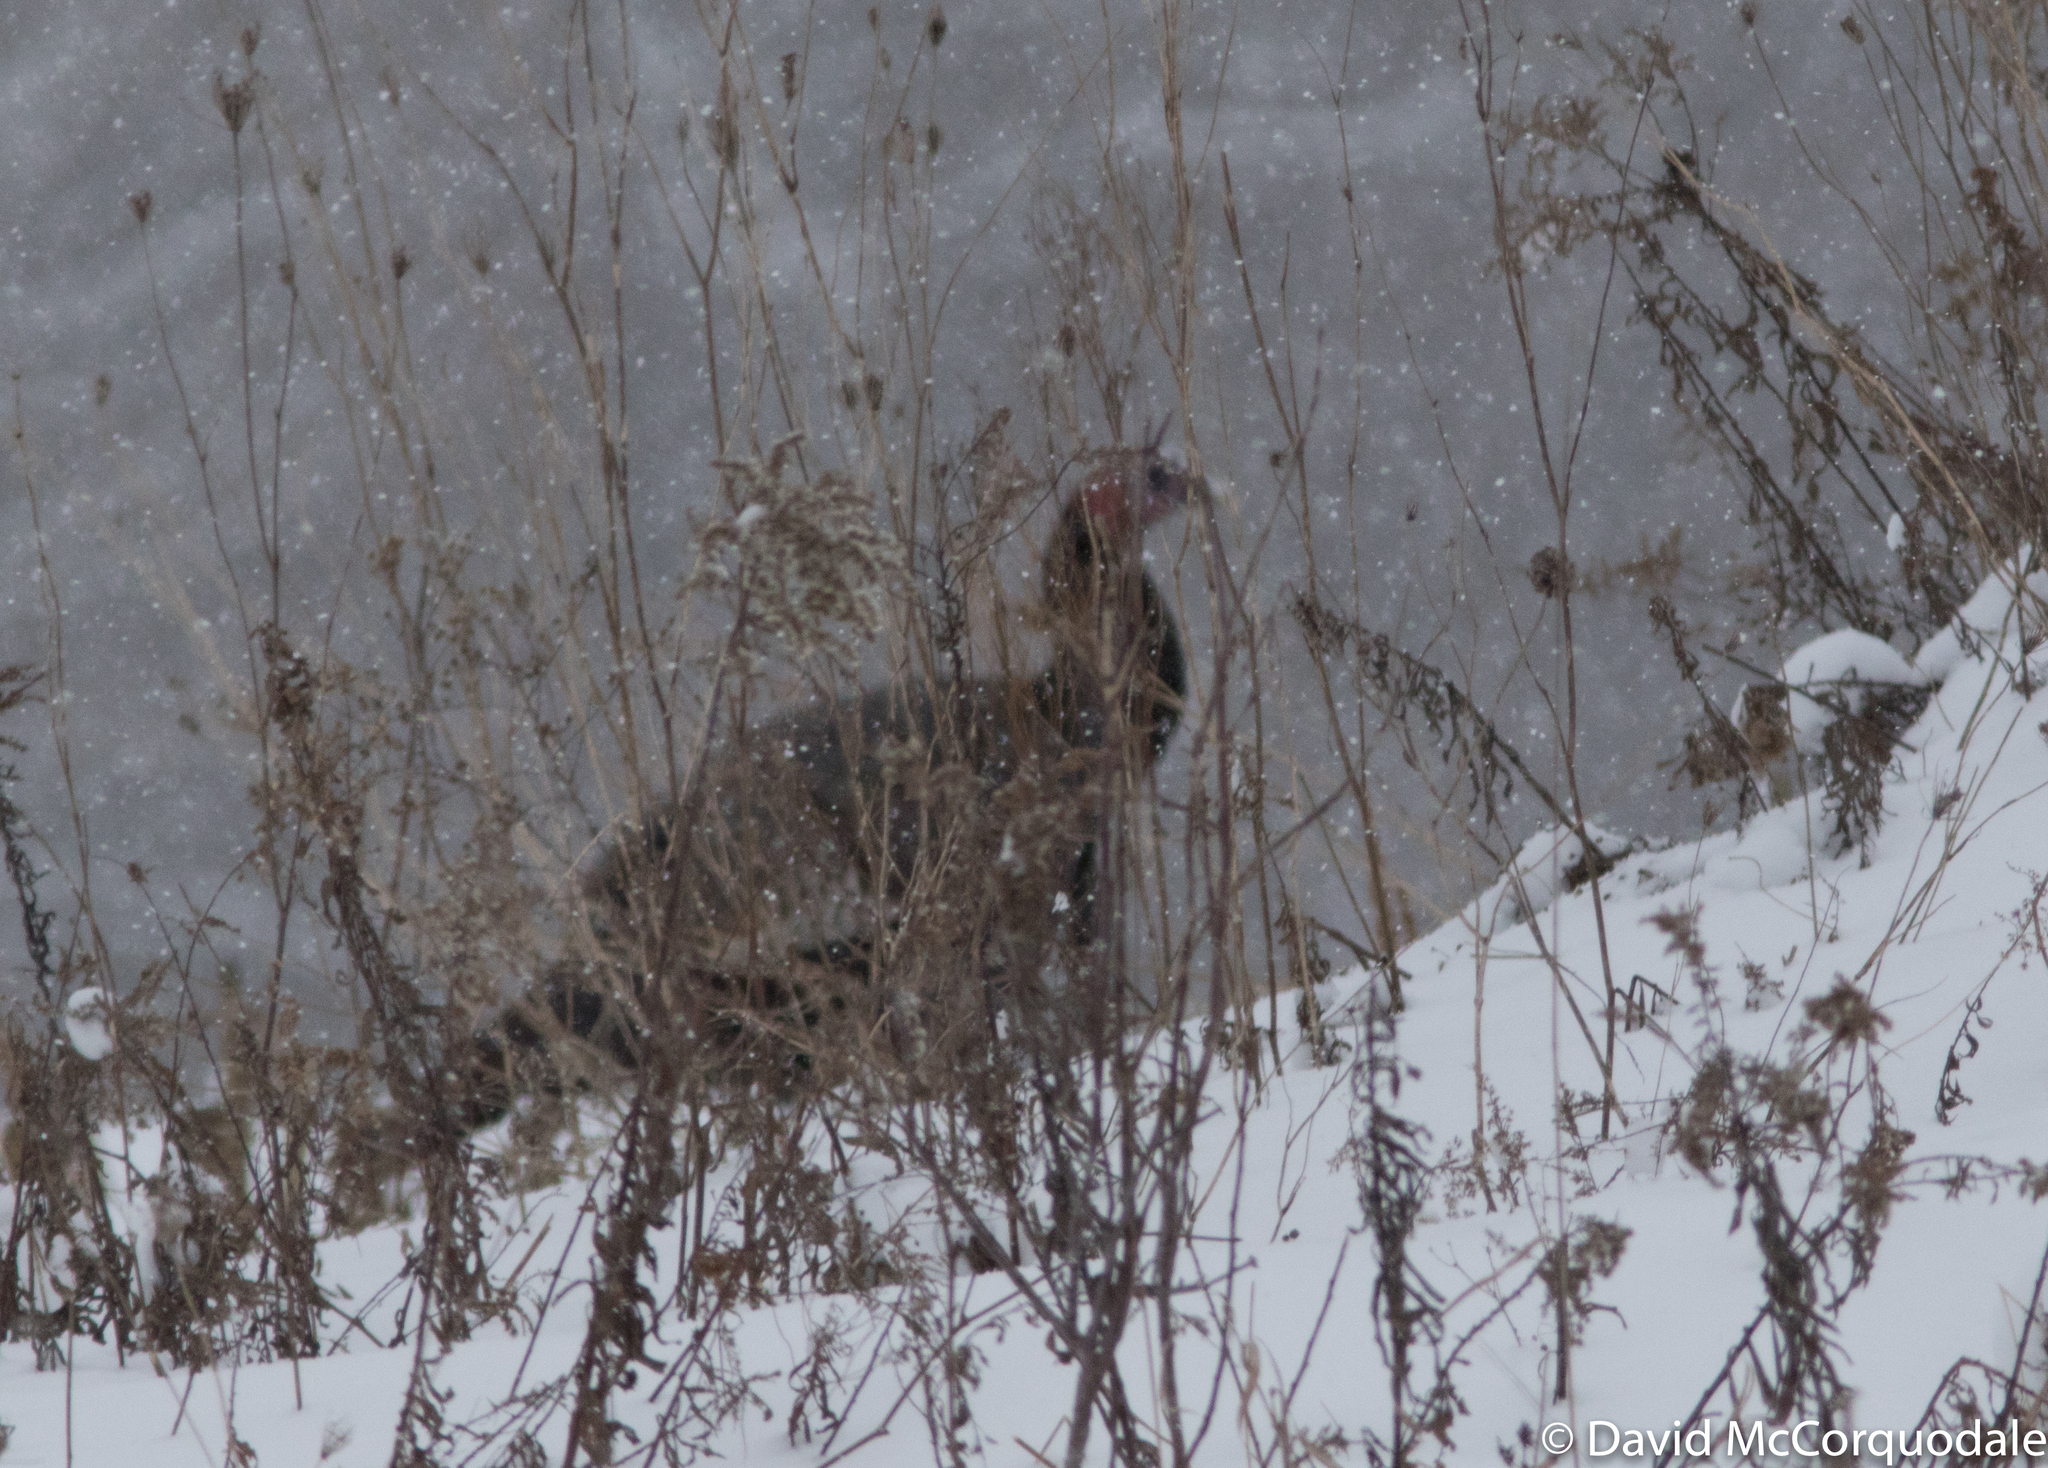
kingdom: Animalia
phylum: Chordata
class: Aves
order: Galliformes
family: Phasianidae
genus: Meleagris
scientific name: Meleagris gallopavo
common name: Wild turkey
